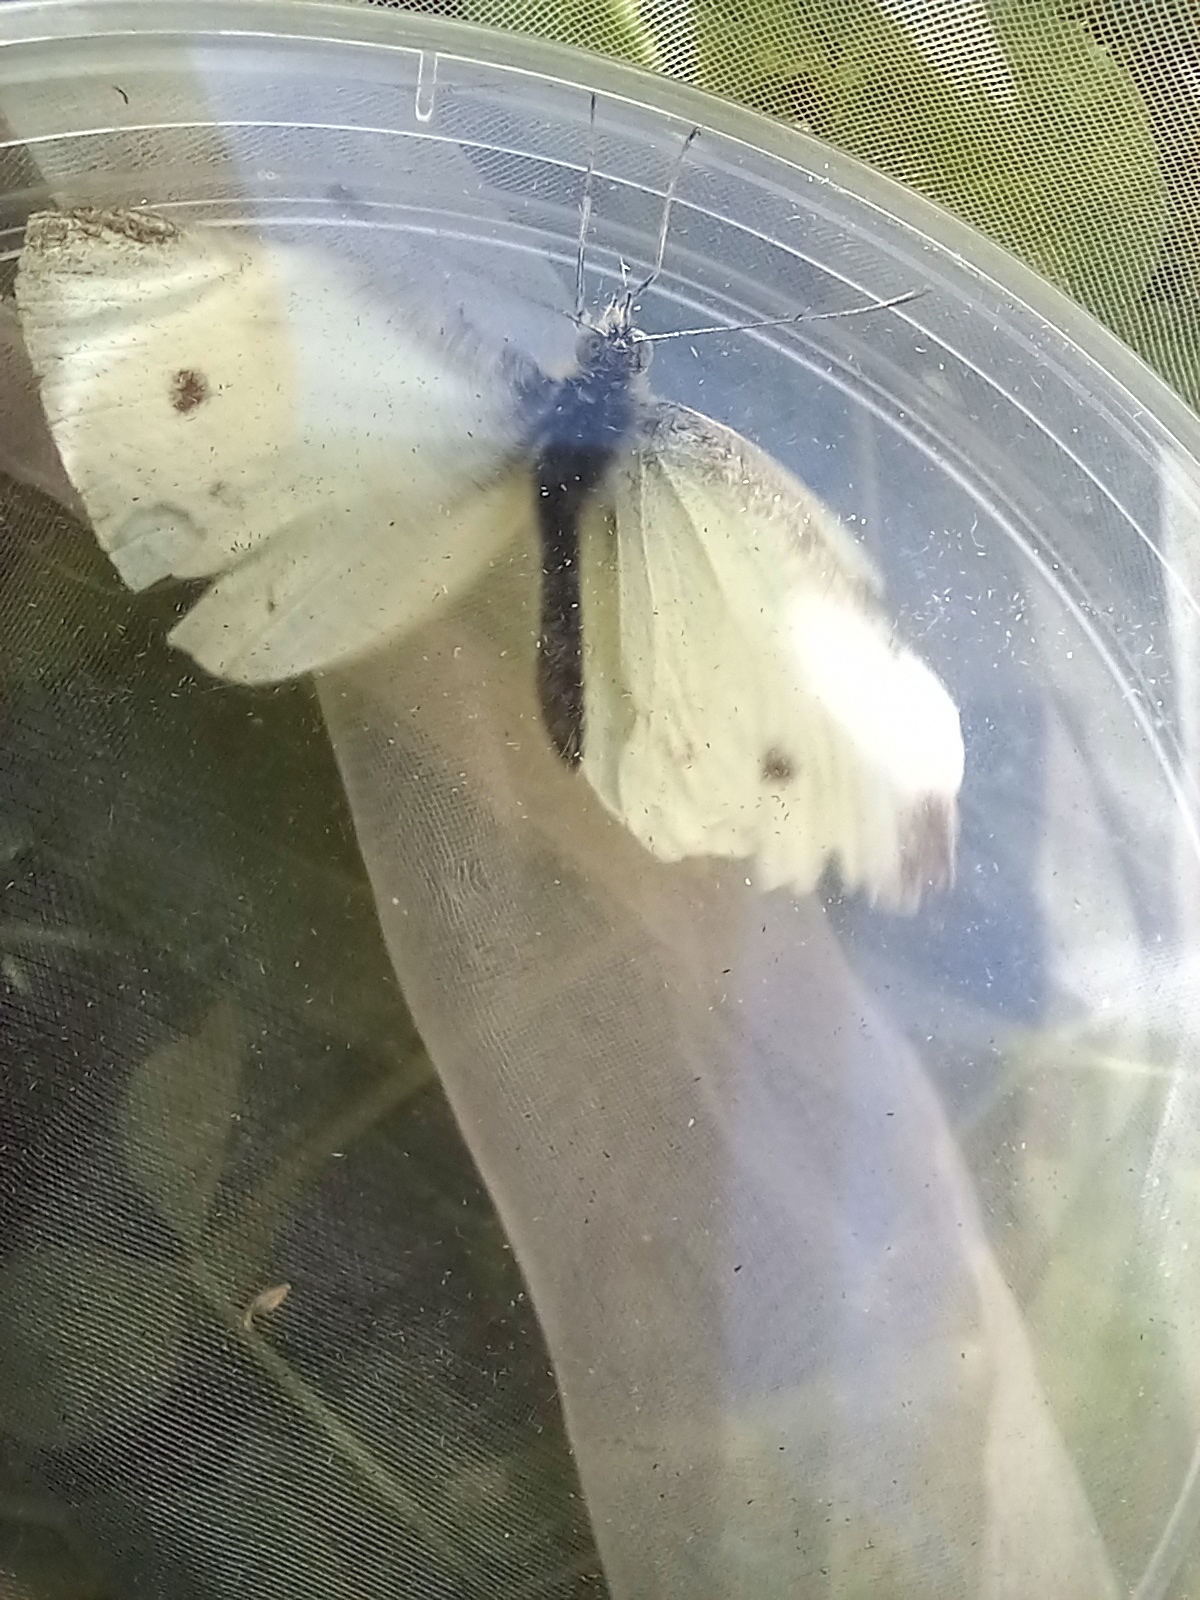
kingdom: Animalia
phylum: Arthropoda
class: Insecta
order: Lepidoptera
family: Pieridae
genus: Pieris
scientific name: Pieris rapae
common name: Small white
